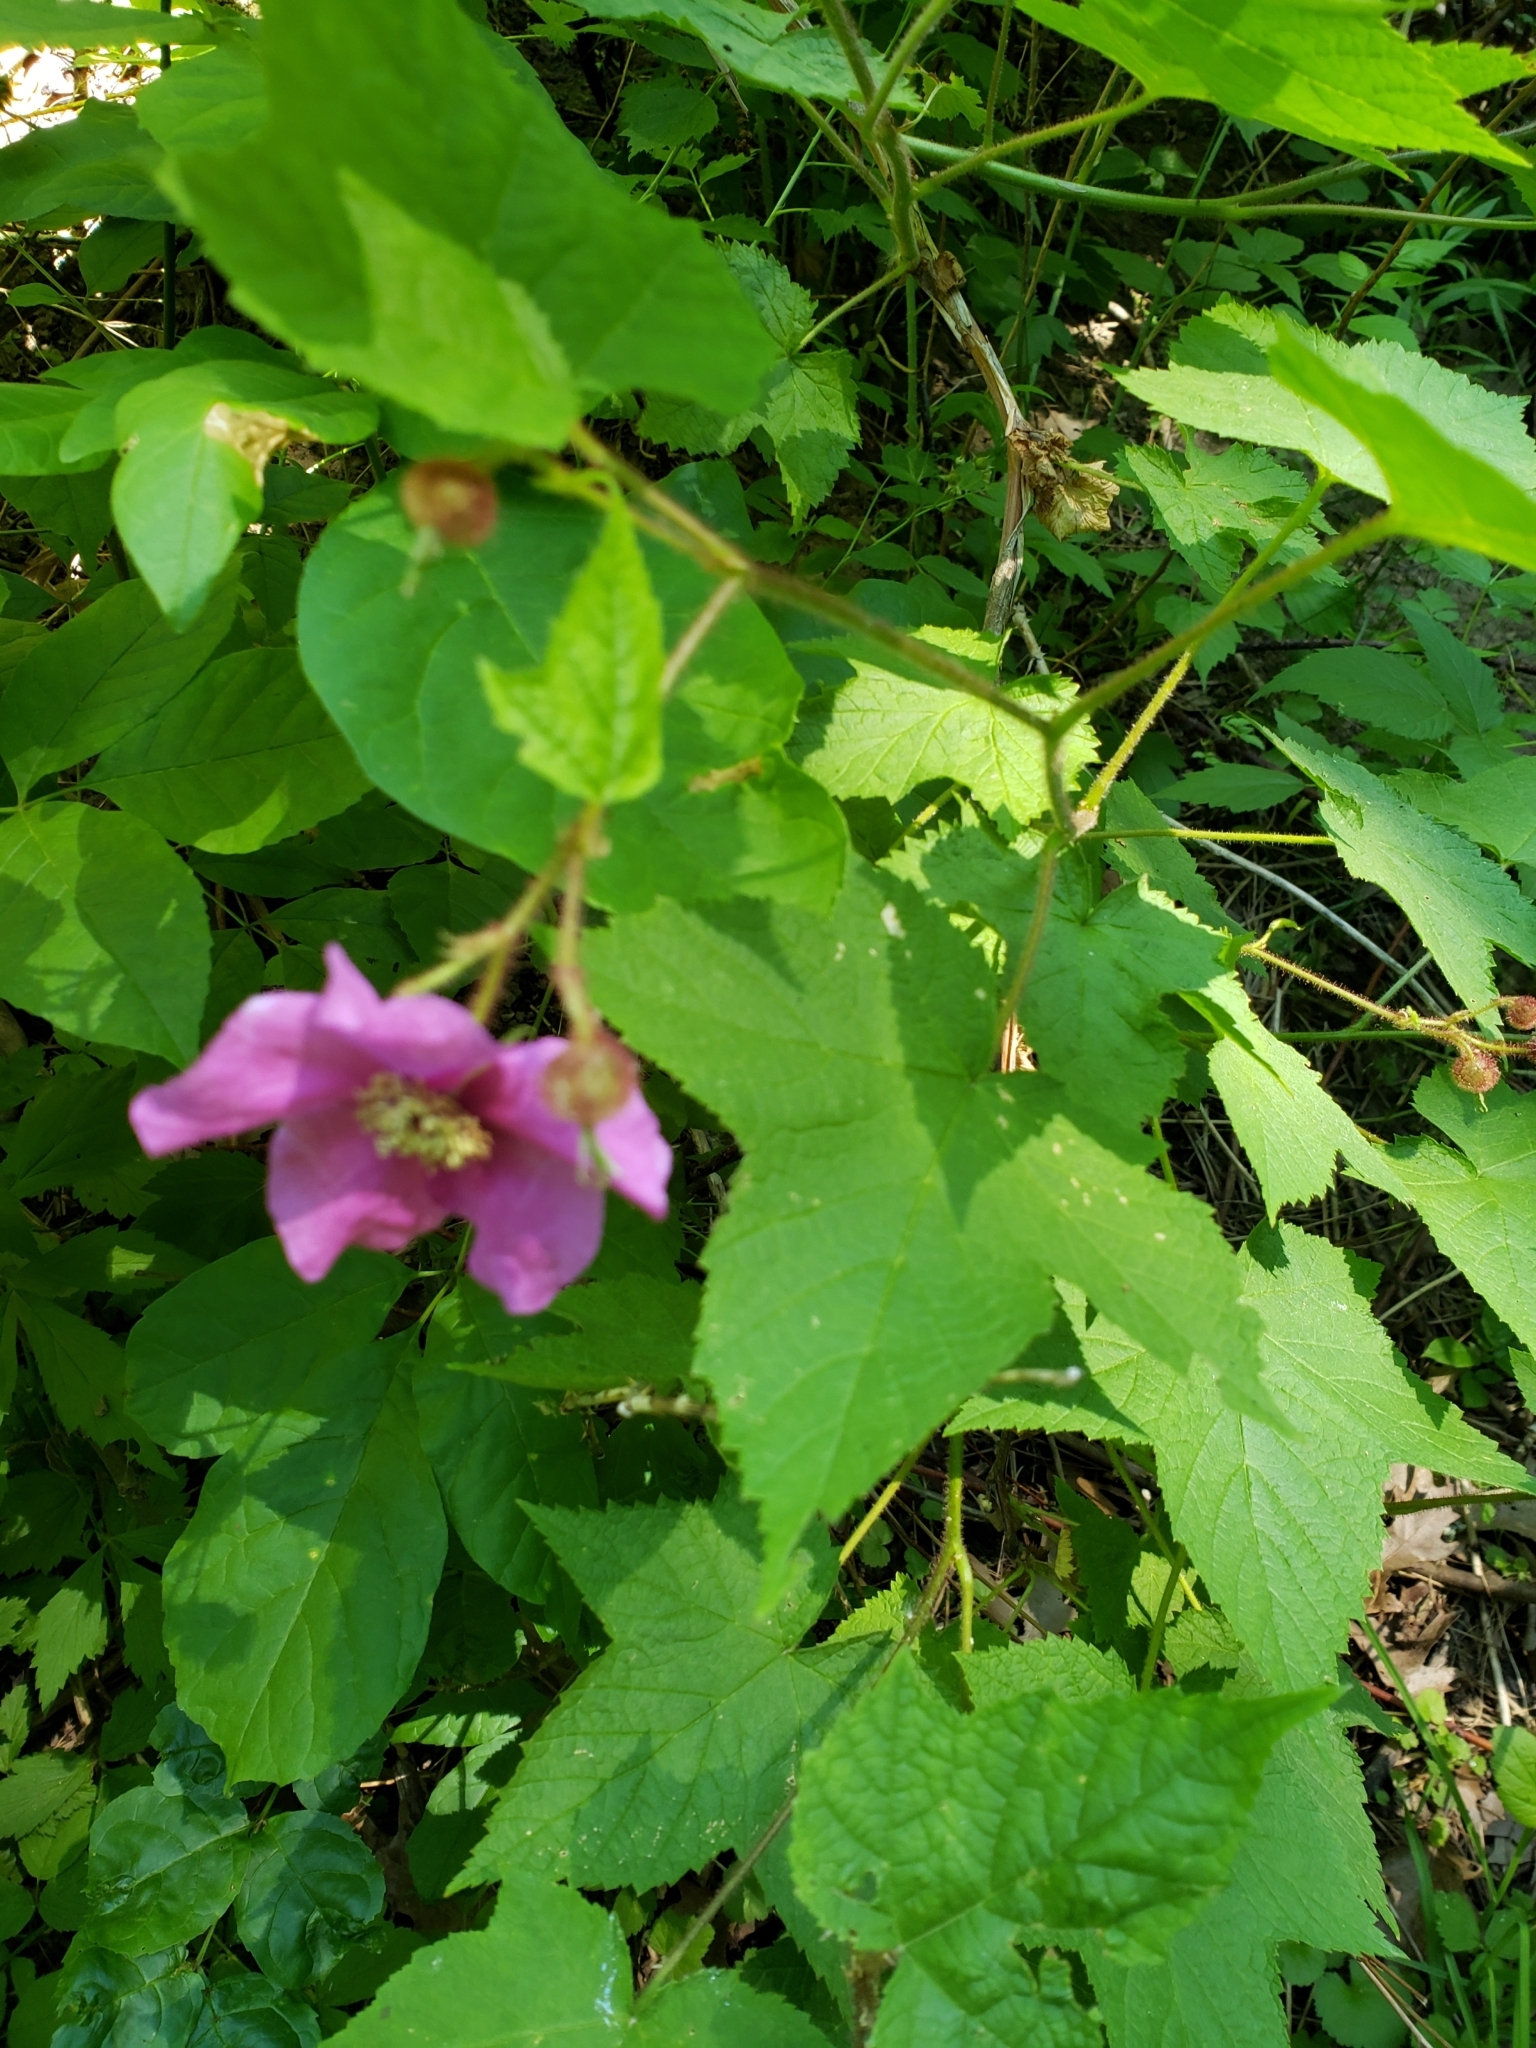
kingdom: Plantae
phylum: Tracheophyta
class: Magnoliopsida
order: Rosales
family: Rosaceae
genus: Rubus
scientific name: Rubus odoratus
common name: Purple-flowered raspberry
